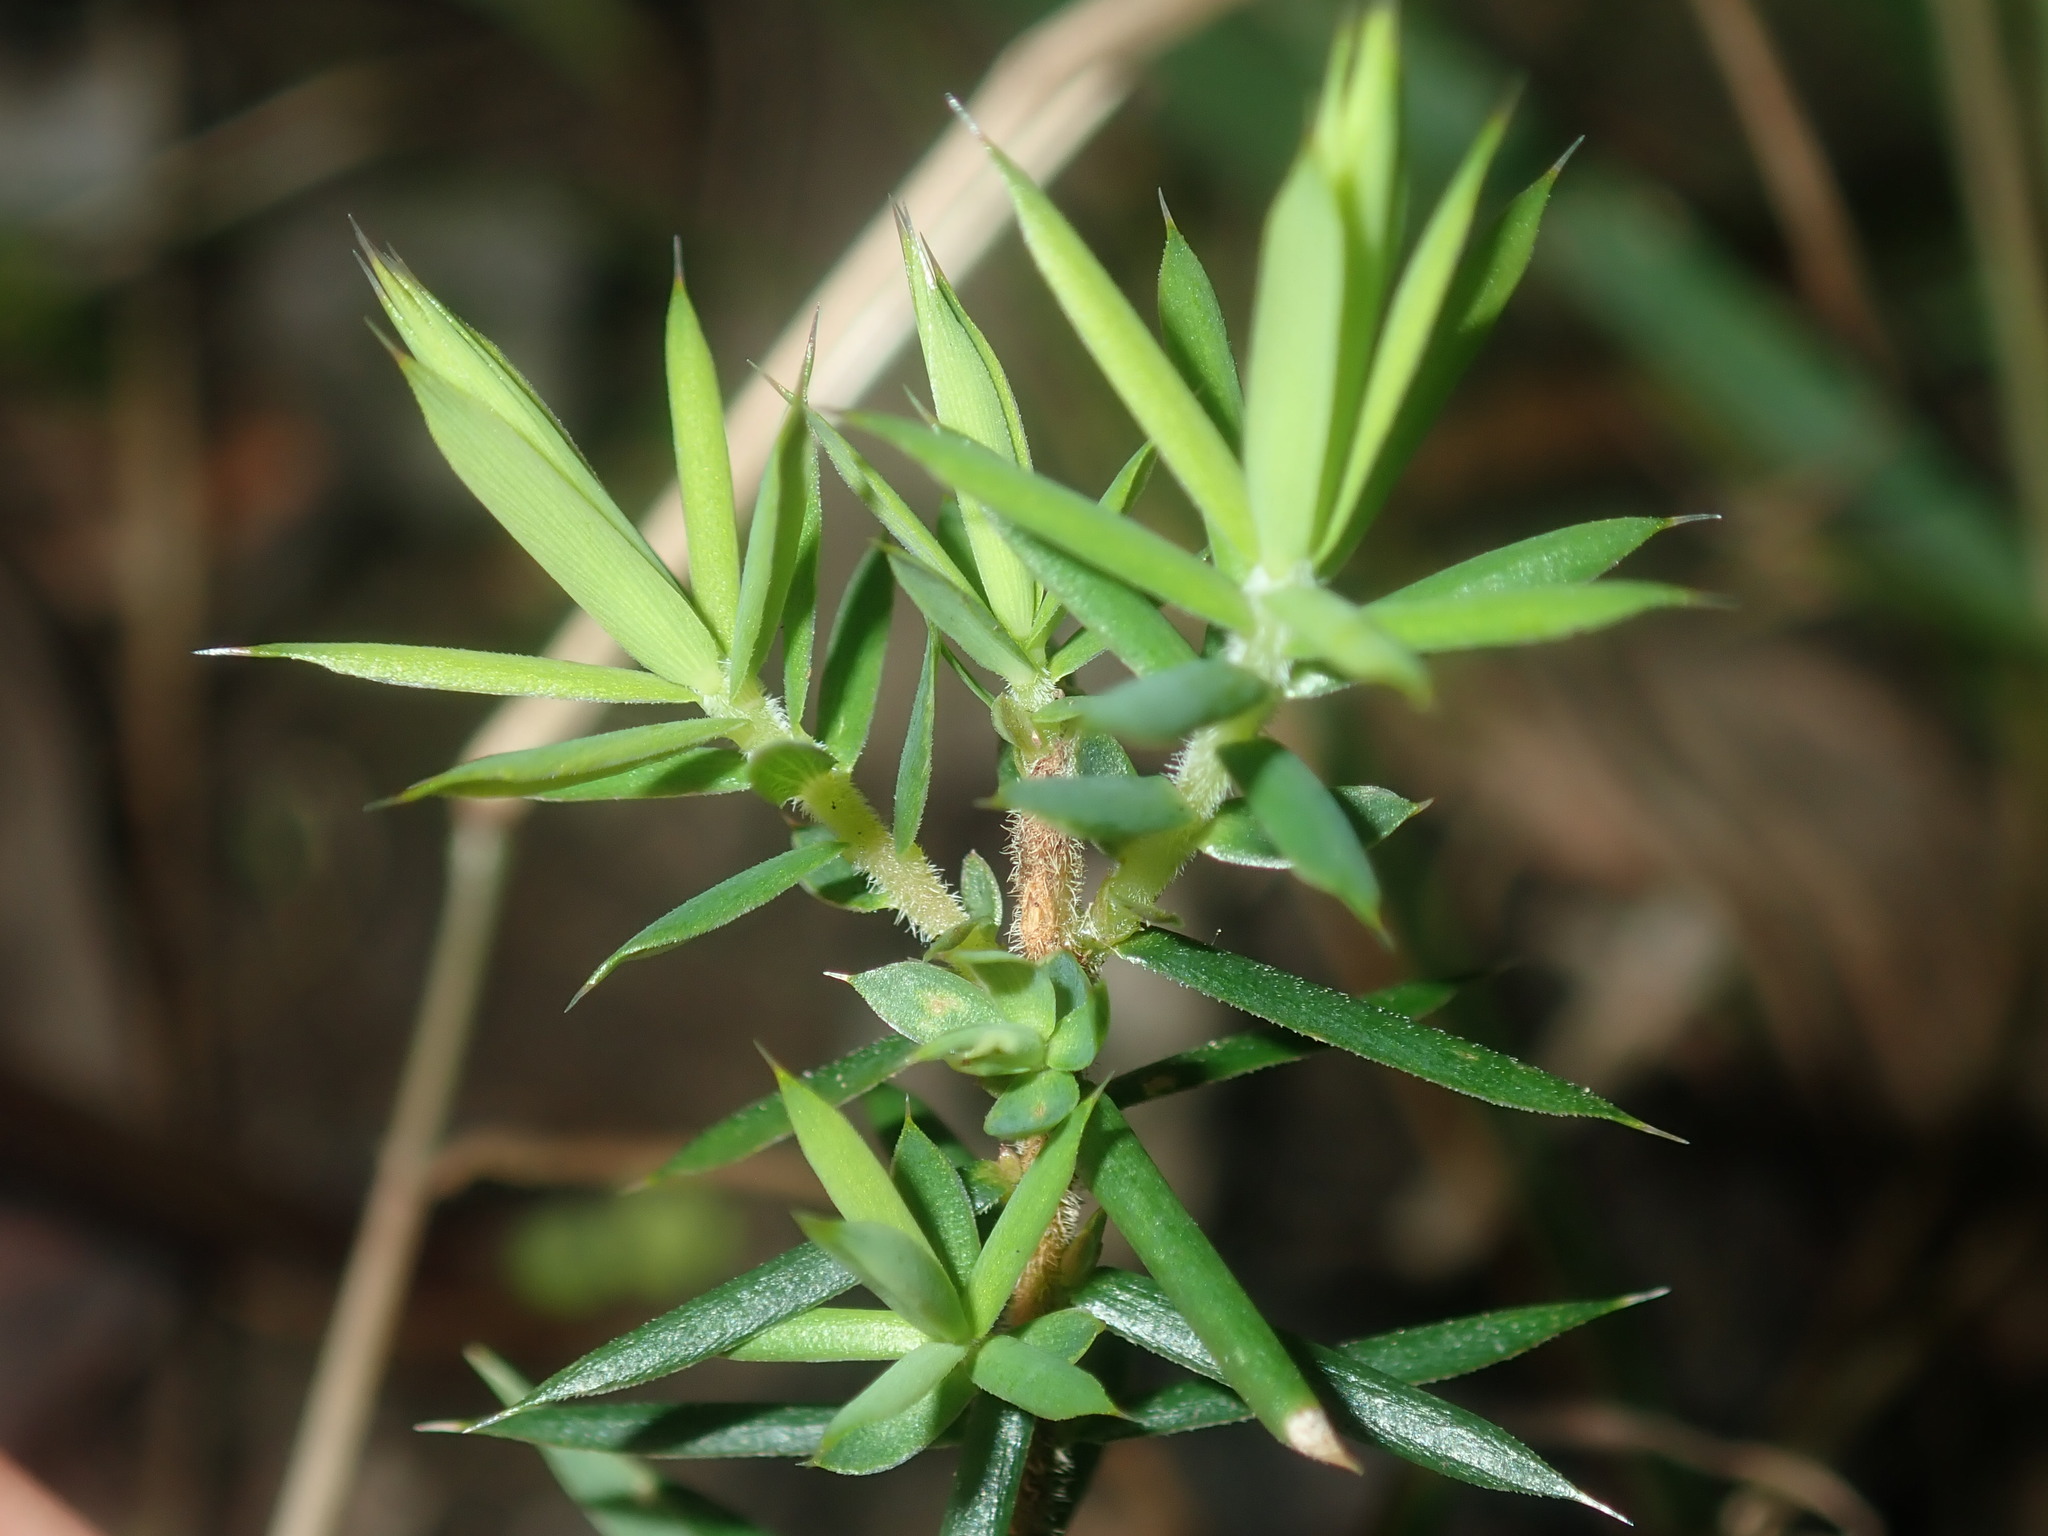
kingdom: Plantae
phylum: Tracheophyta
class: Magnoliopsida
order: Ericales
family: Ericaceae
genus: Styphelia
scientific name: Styphelia sieberi
